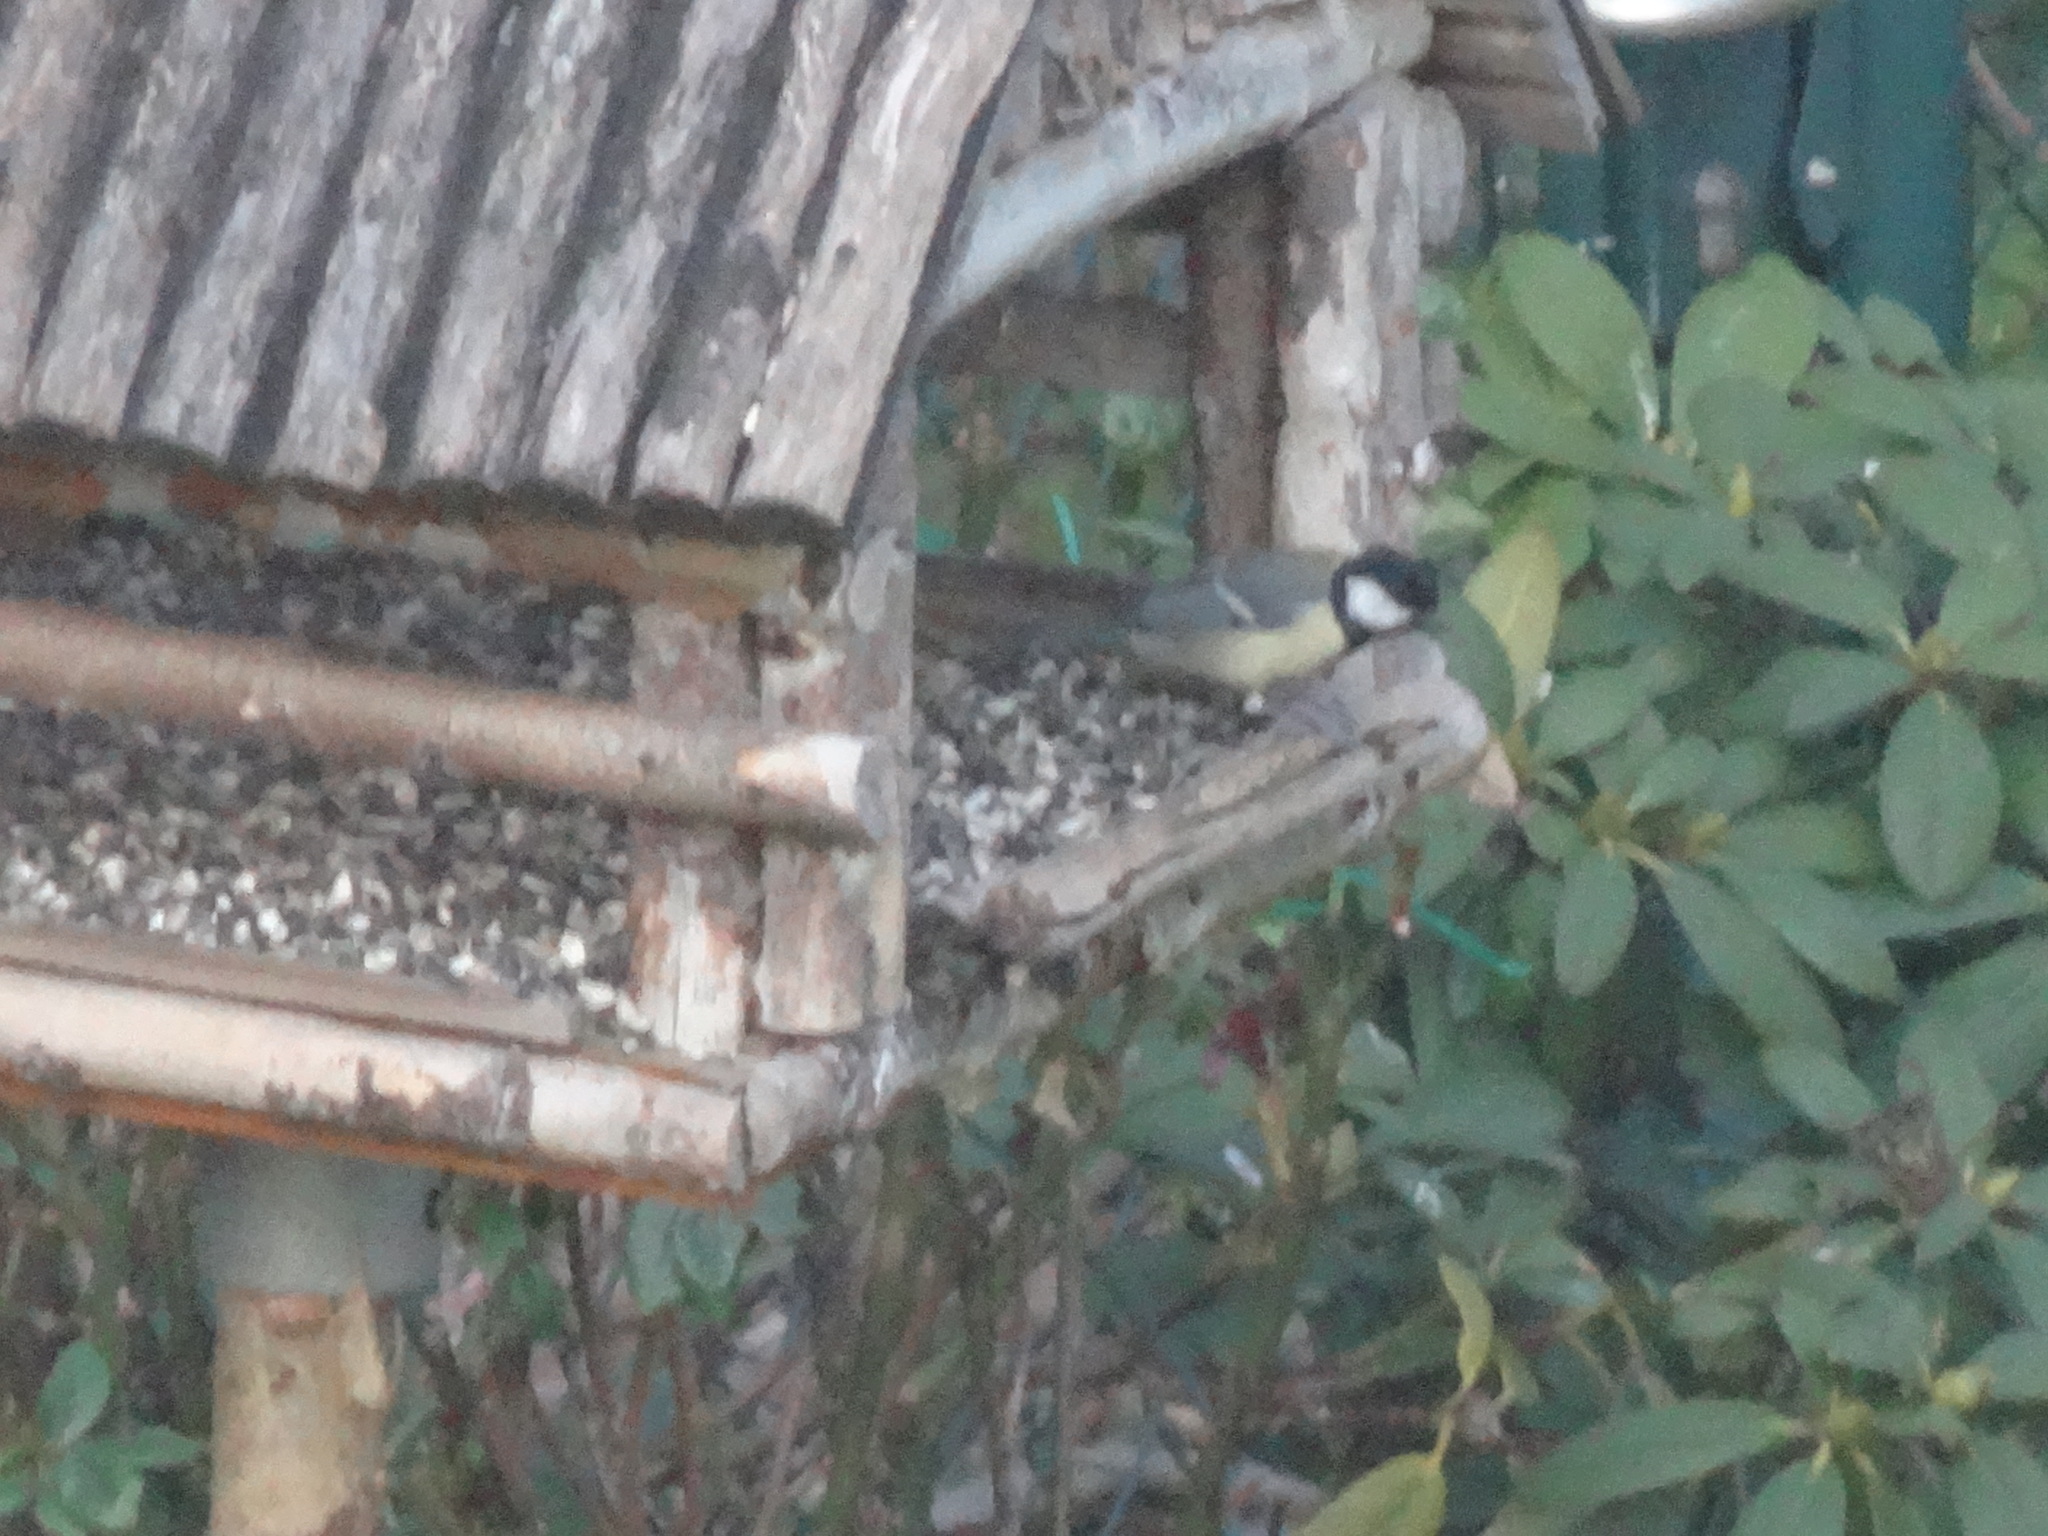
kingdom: Animalia
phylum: Chordata
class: Aves
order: Passeriformes
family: Paridae
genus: Parus
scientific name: Parus major
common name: Great tit
